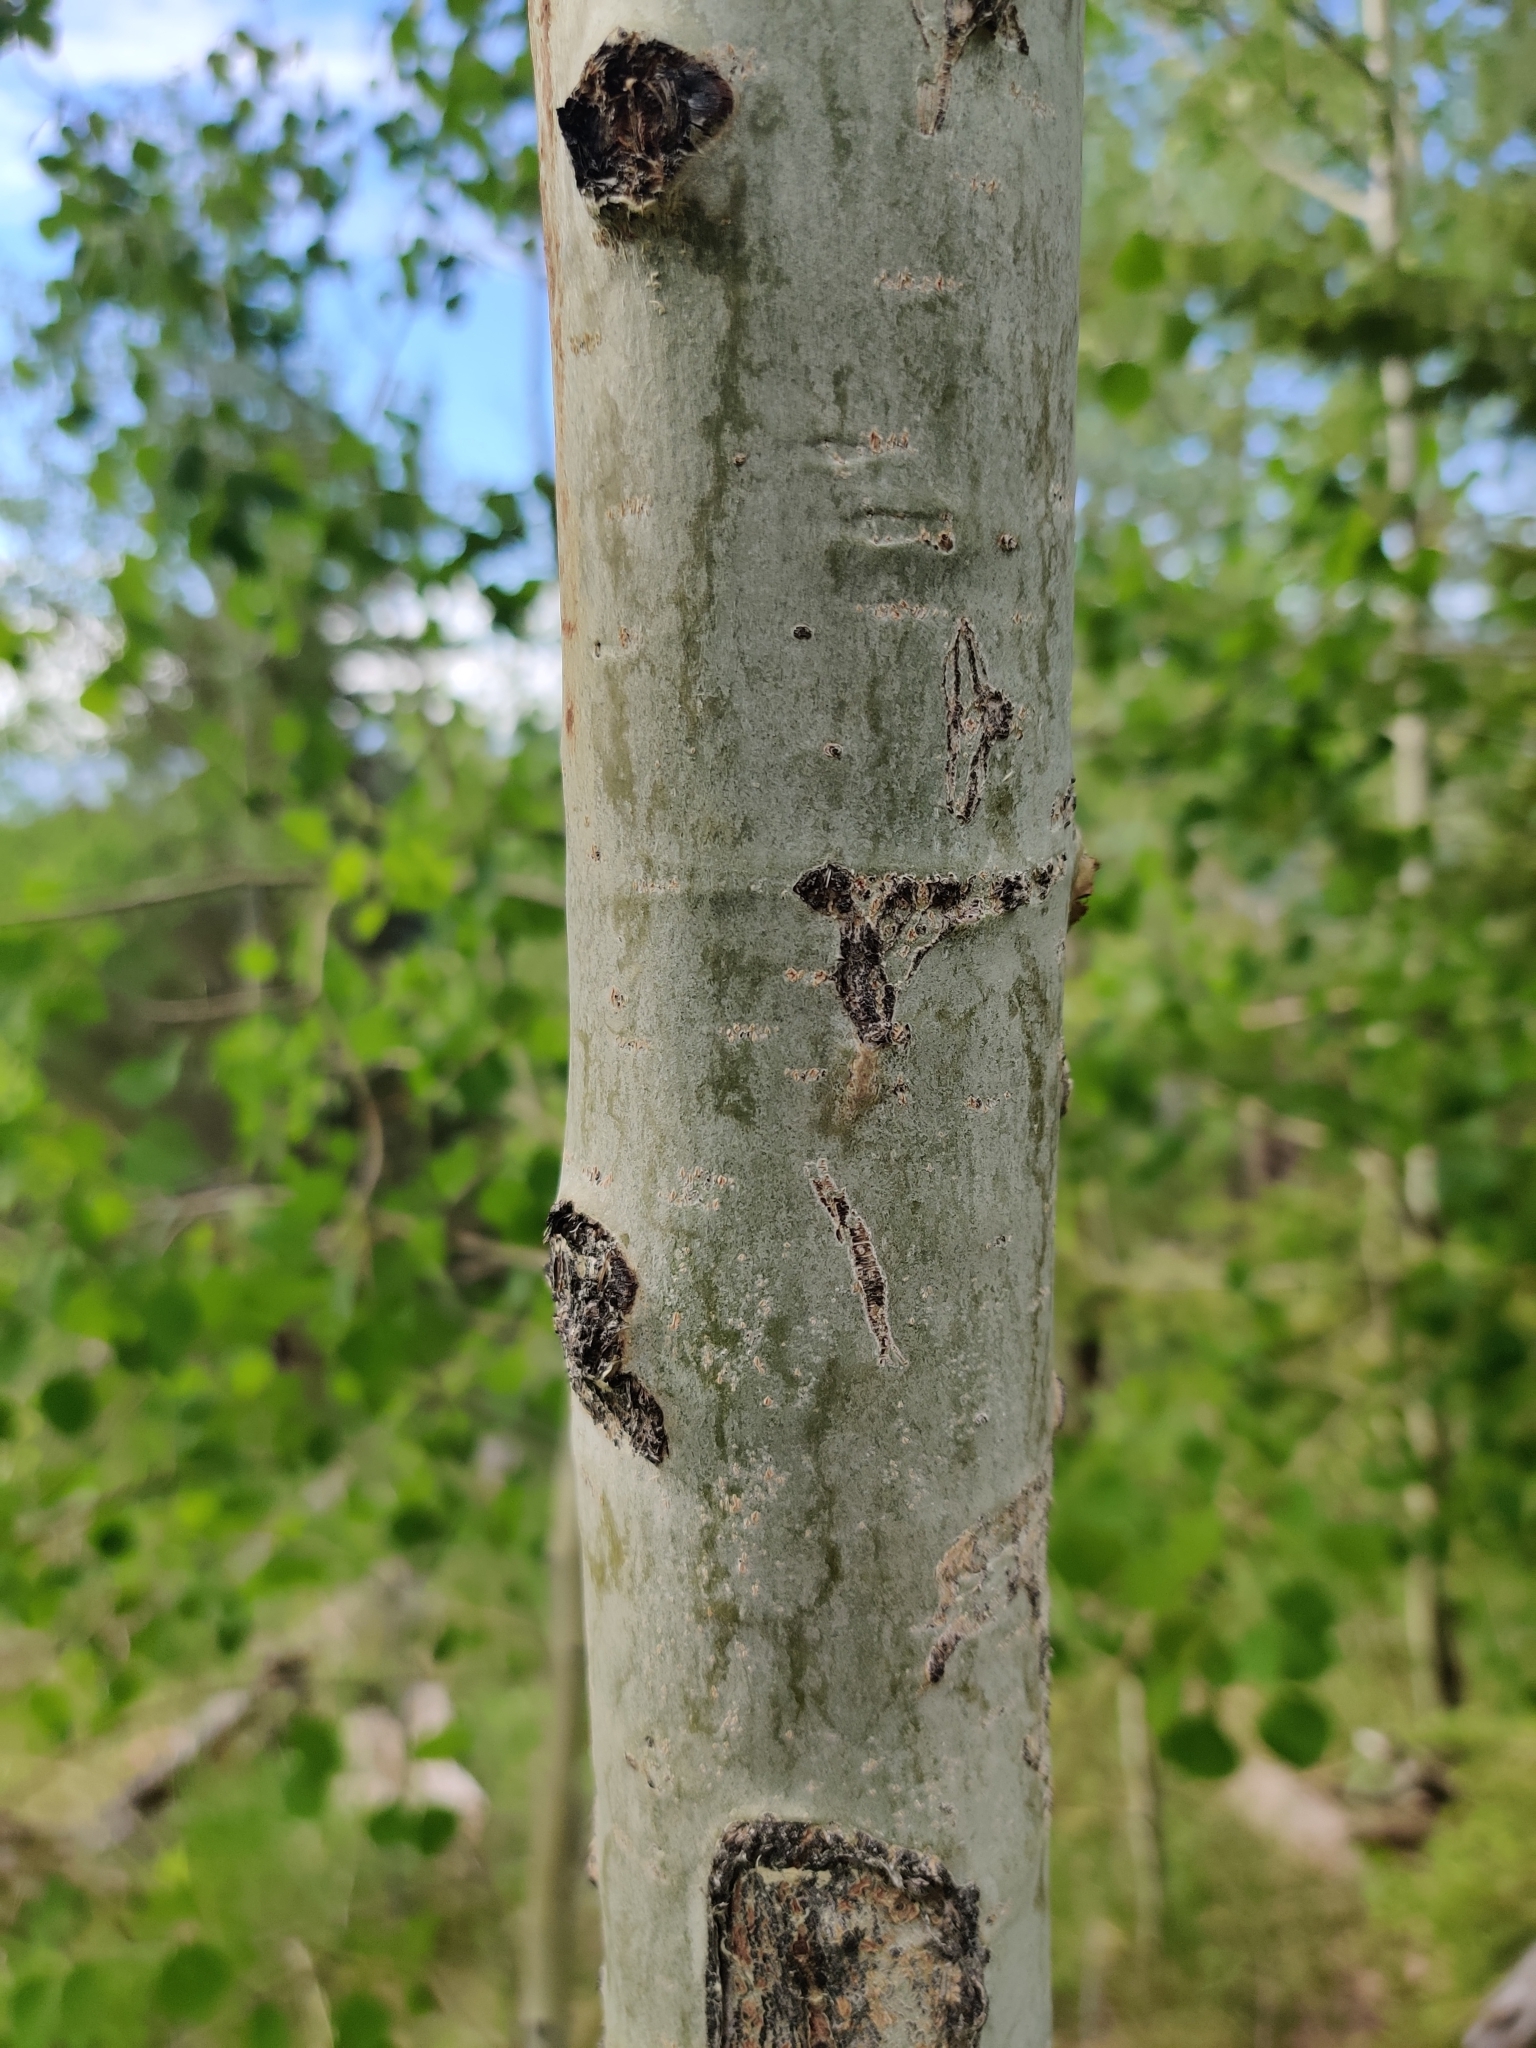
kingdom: Plantae
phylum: Tracheophyta
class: Magnoliopsida
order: Malpighiales
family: Salicaceae
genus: Populus
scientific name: Populus tremuloides
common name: Quaking aspen
